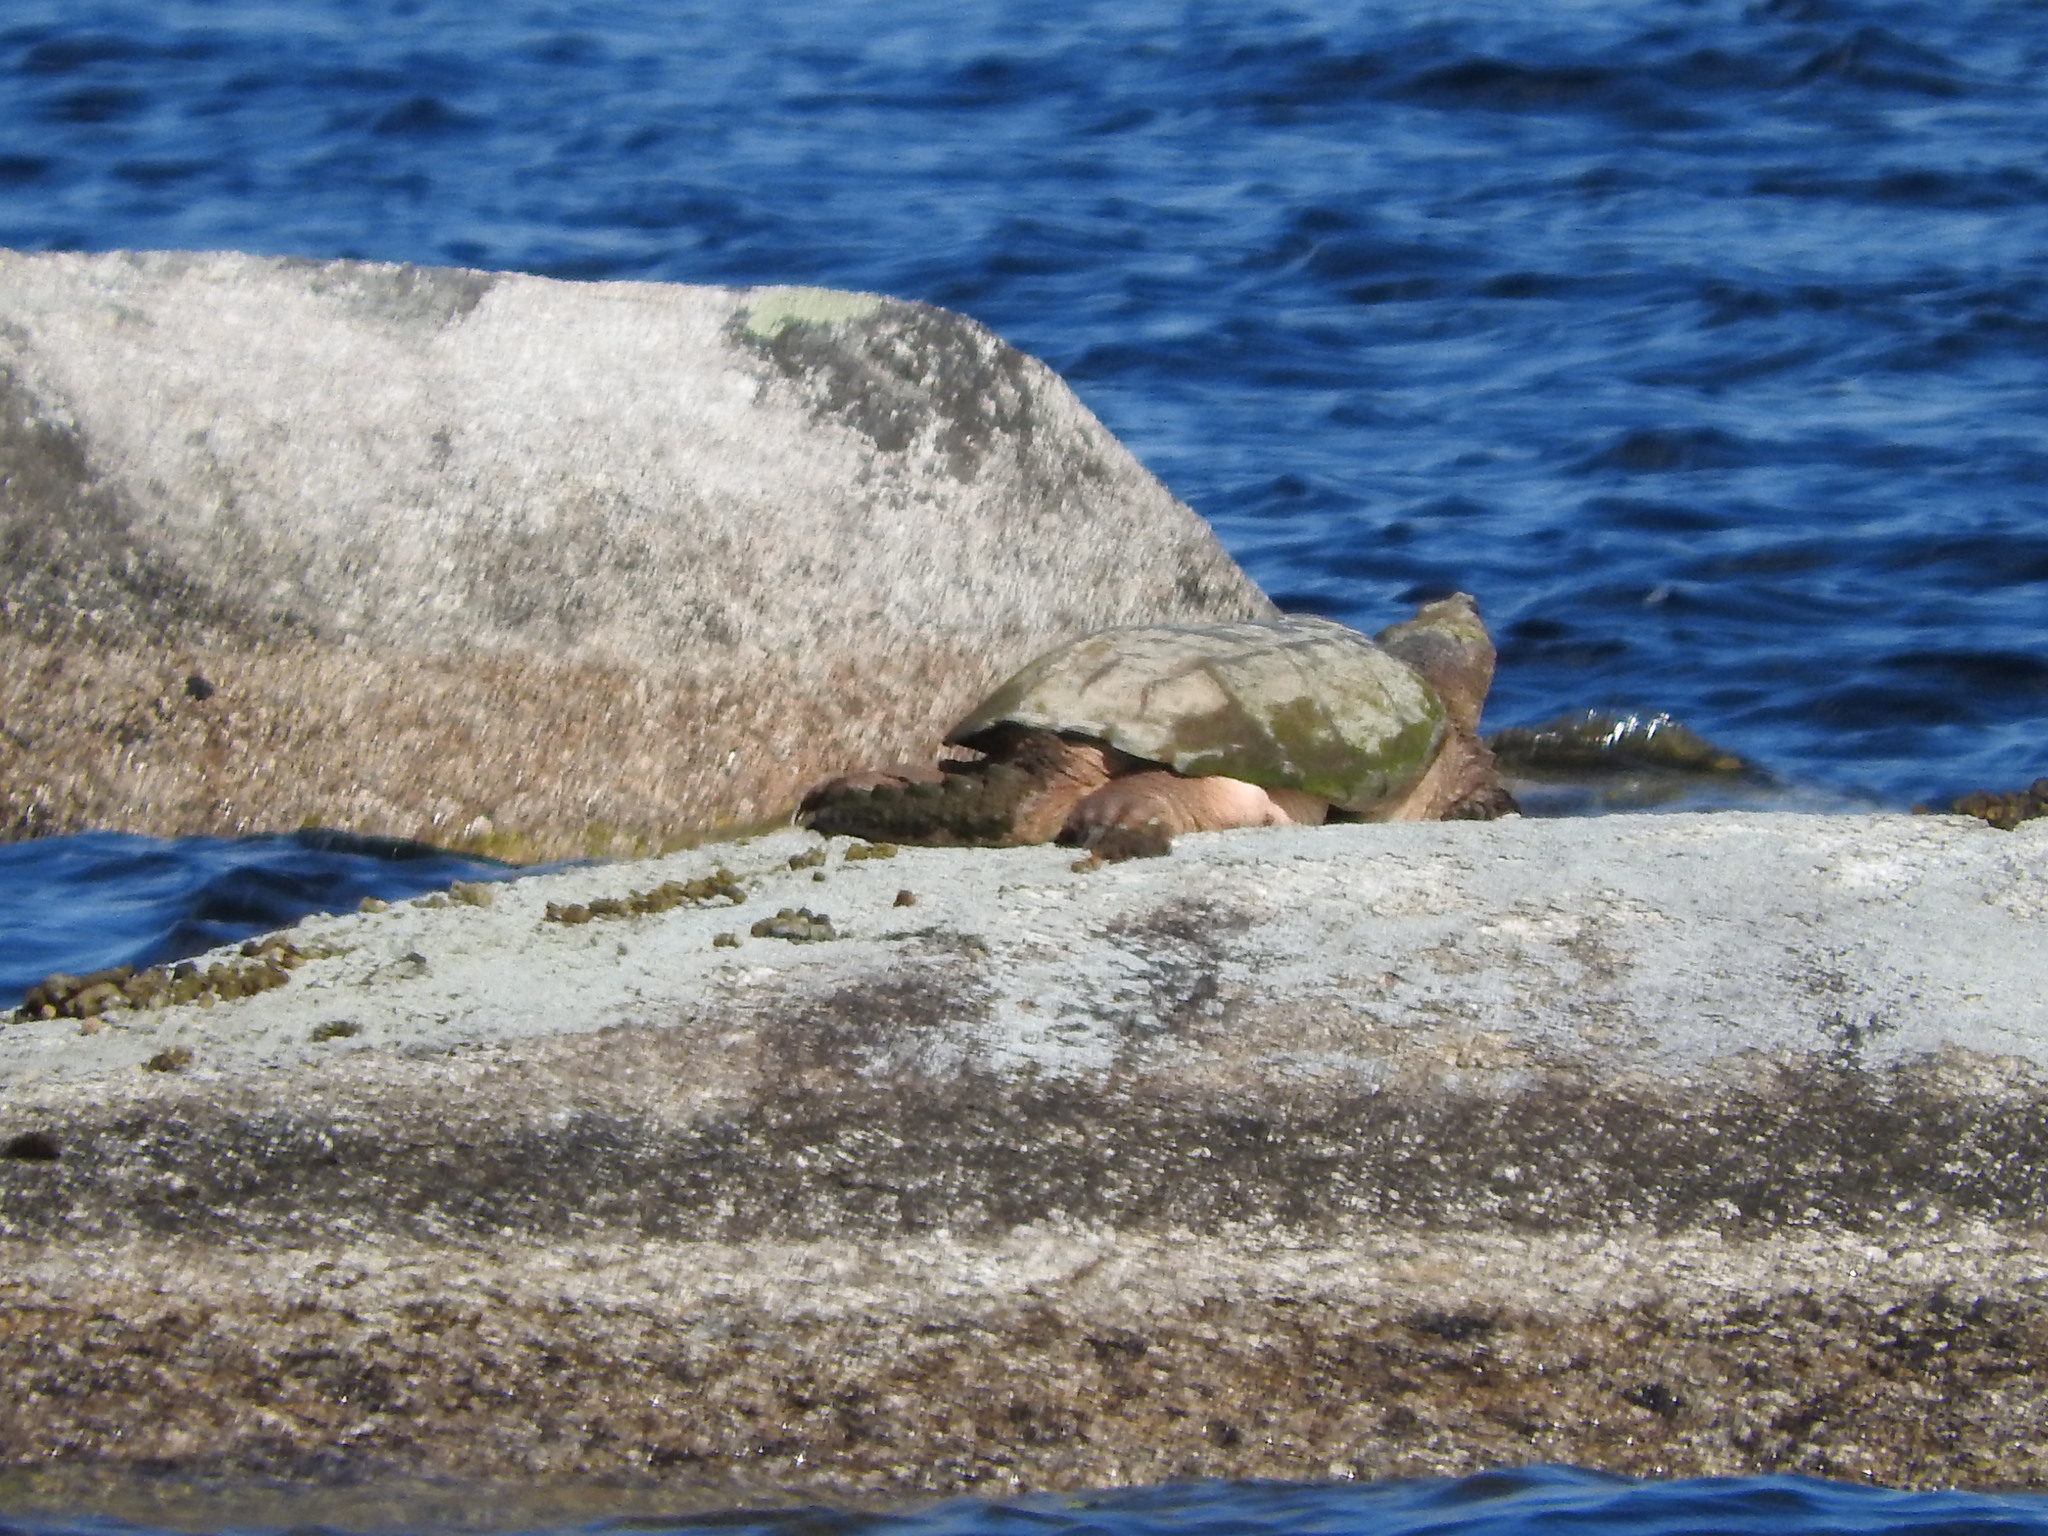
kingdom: Animalia
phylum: Chordata
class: Testudines
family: Chelydridae
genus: Chelydra
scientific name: Chelydra serpentina
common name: Common snapping turtle
